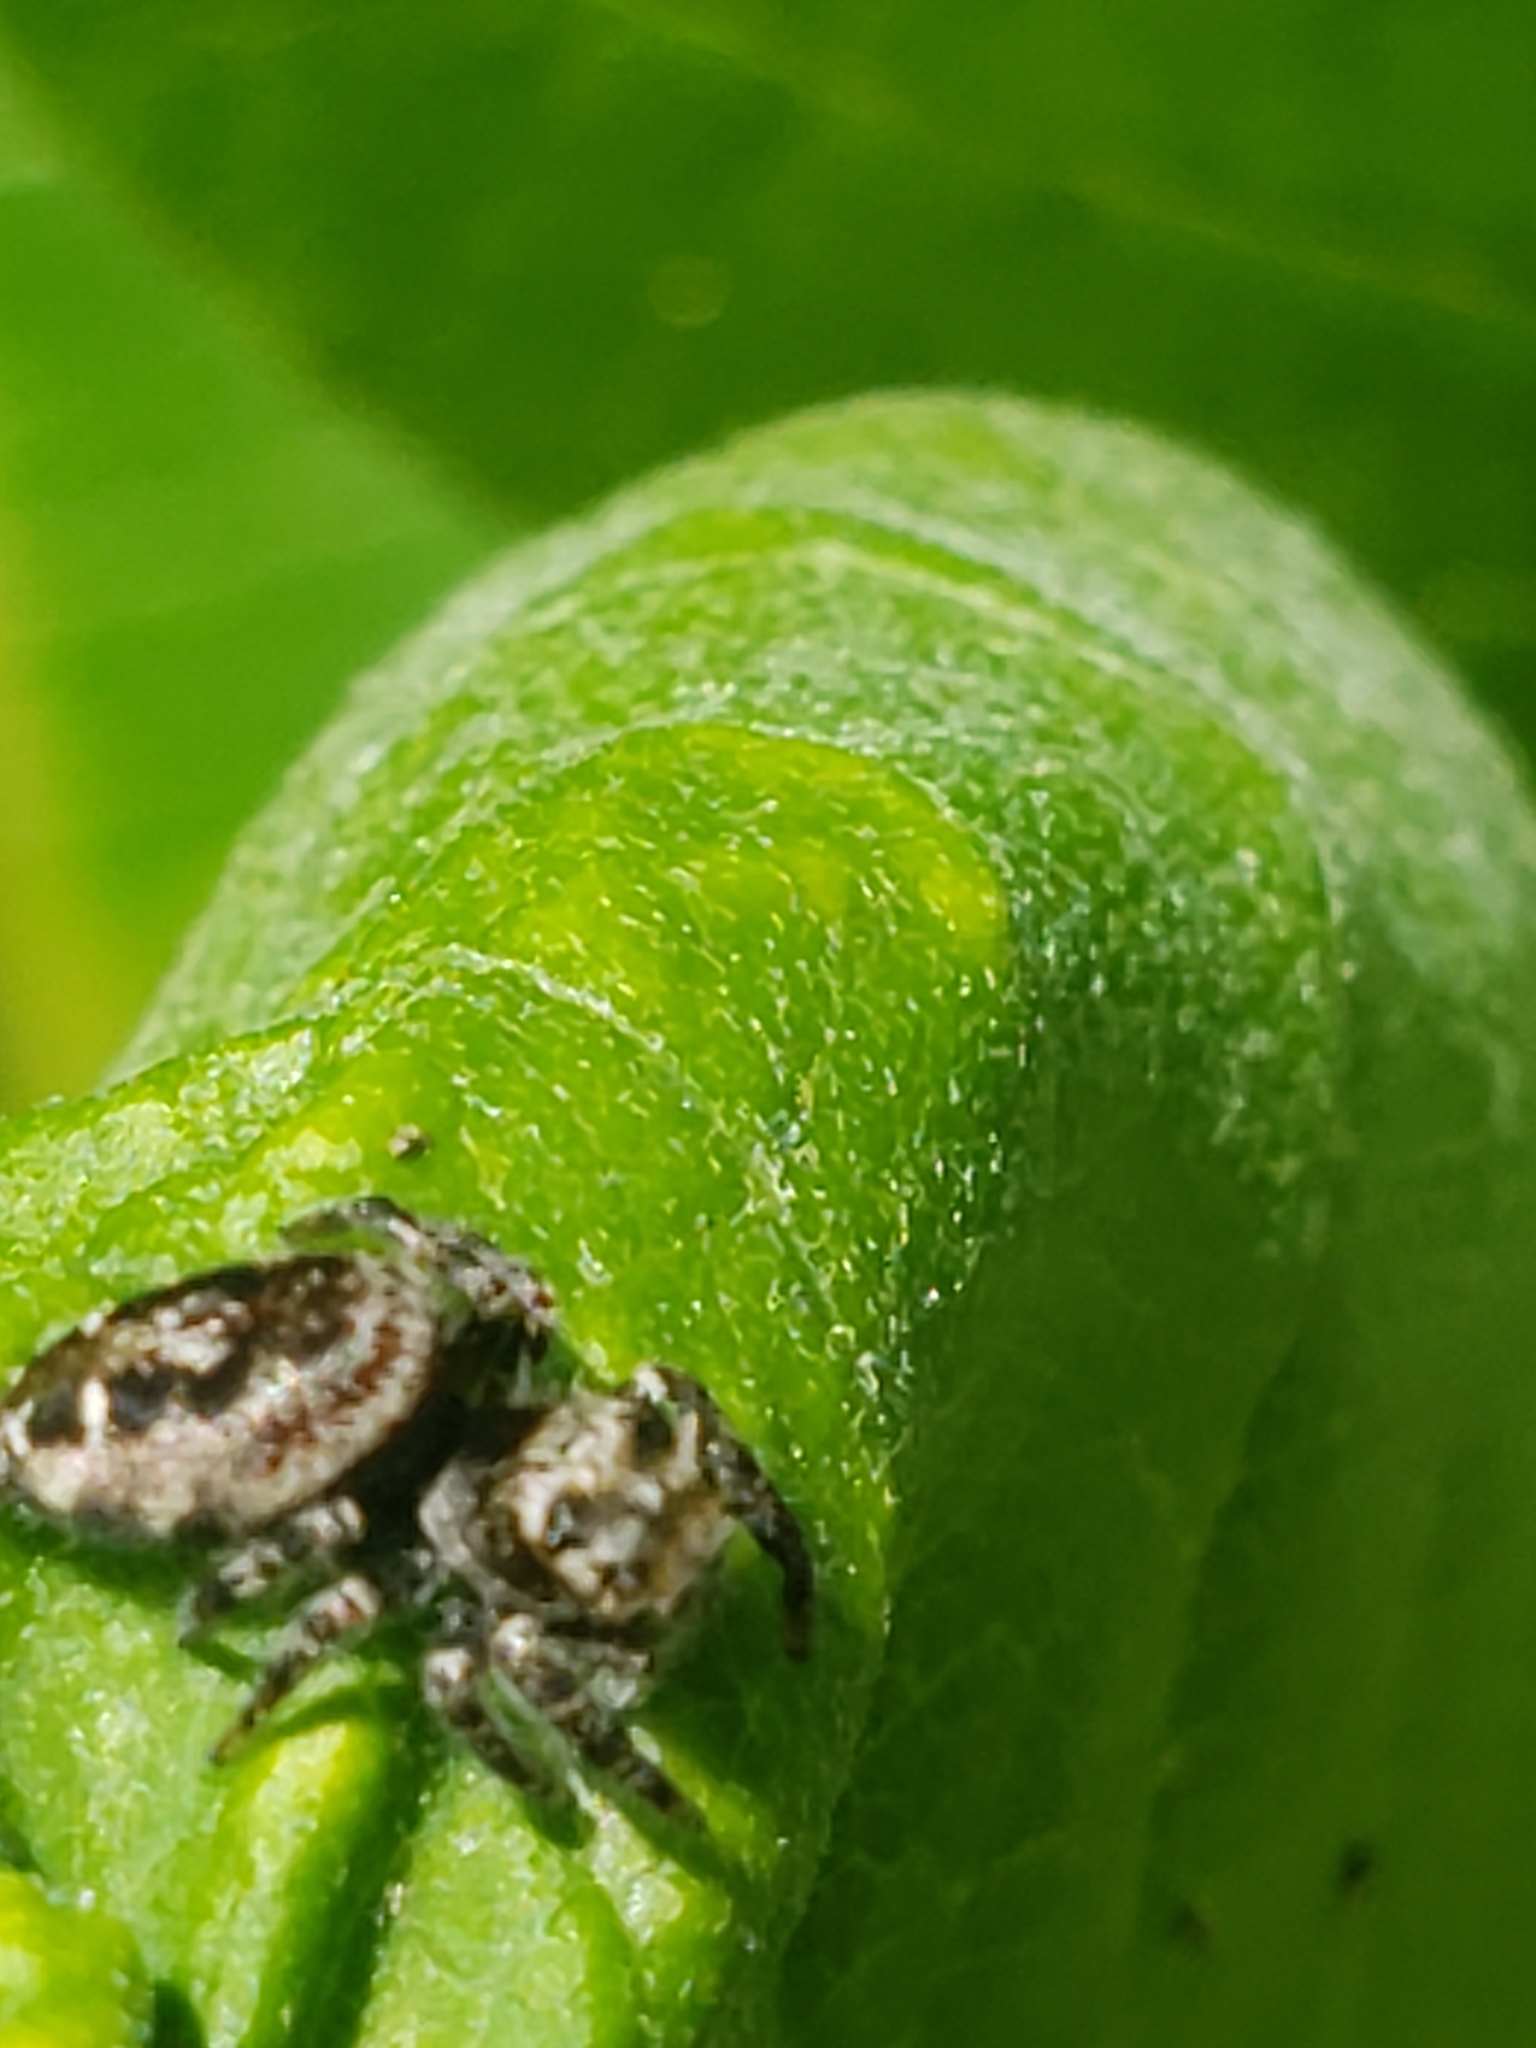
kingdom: Animalia
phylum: Arthropoda
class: Arachnida
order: Araneae
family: Salticidae
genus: Phidippus
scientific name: Phidippus putnami
